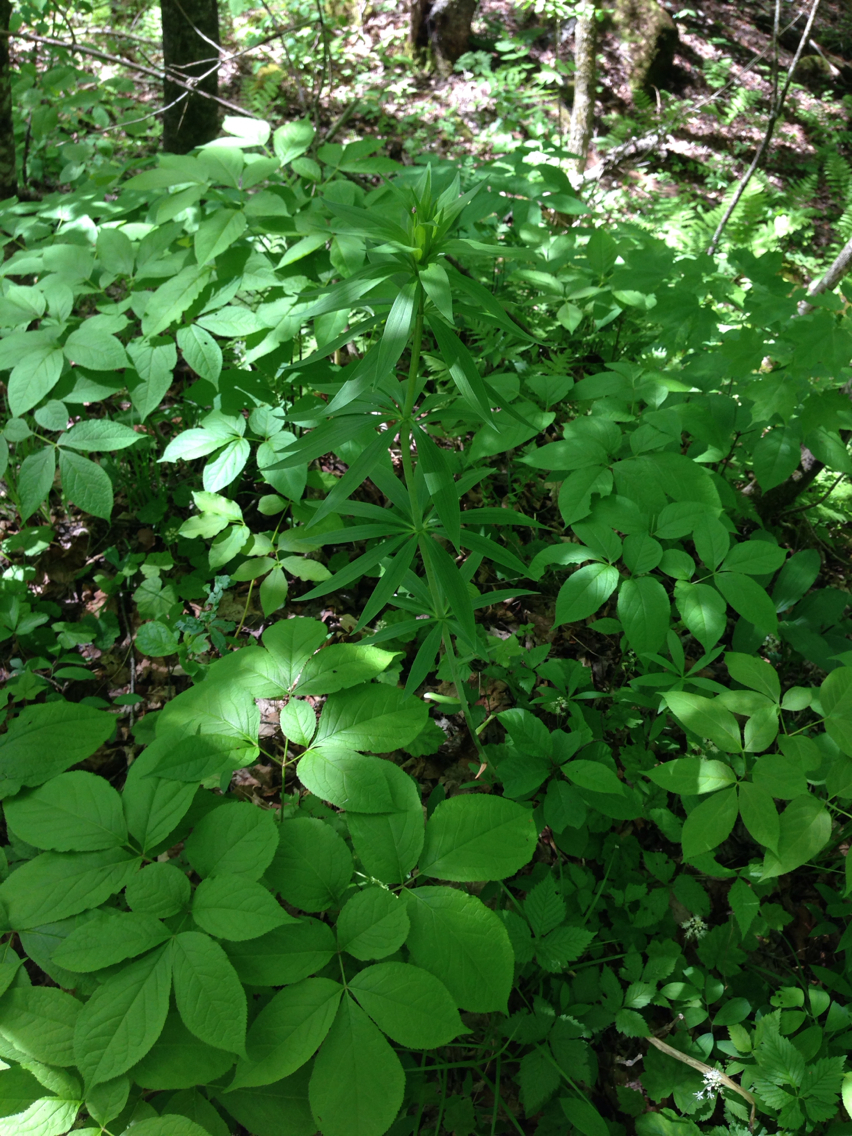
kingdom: Plantae
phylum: Tracheophyta
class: Liliopsida
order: Liliales
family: Liliaceae
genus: Lilium
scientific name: Lilium
